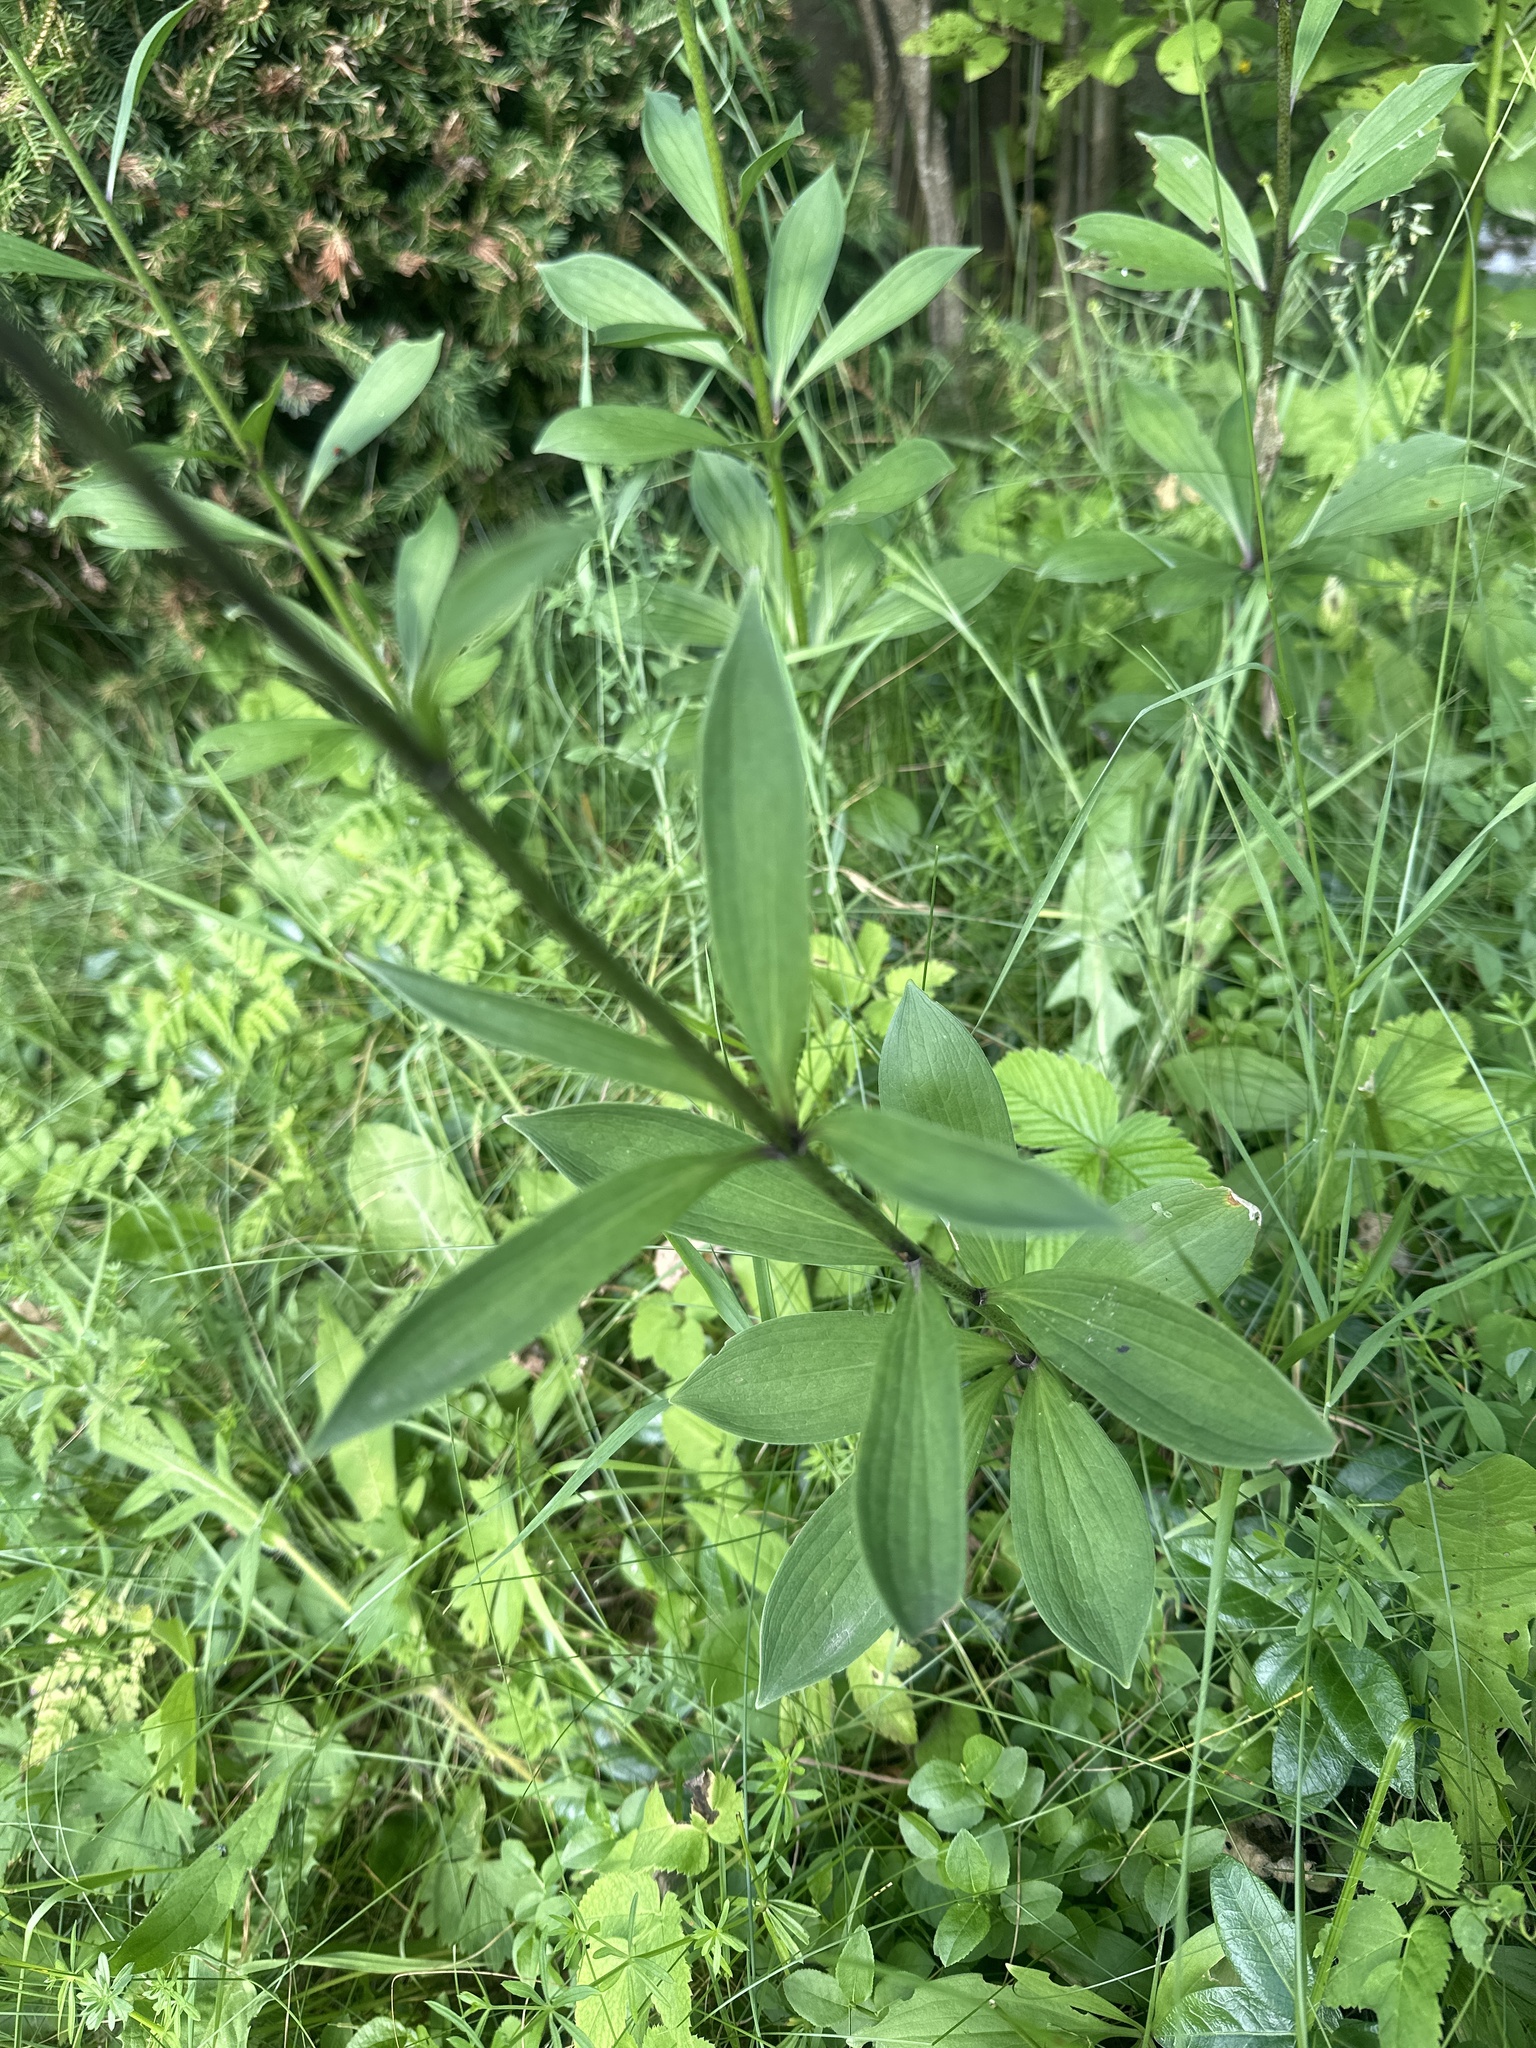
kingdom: Plantae
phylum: Tracheophyta
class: Liliopsida
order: Liliales
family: Liliaceae
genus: Lilium
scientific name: Lilium martagon
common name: Martagon lily
